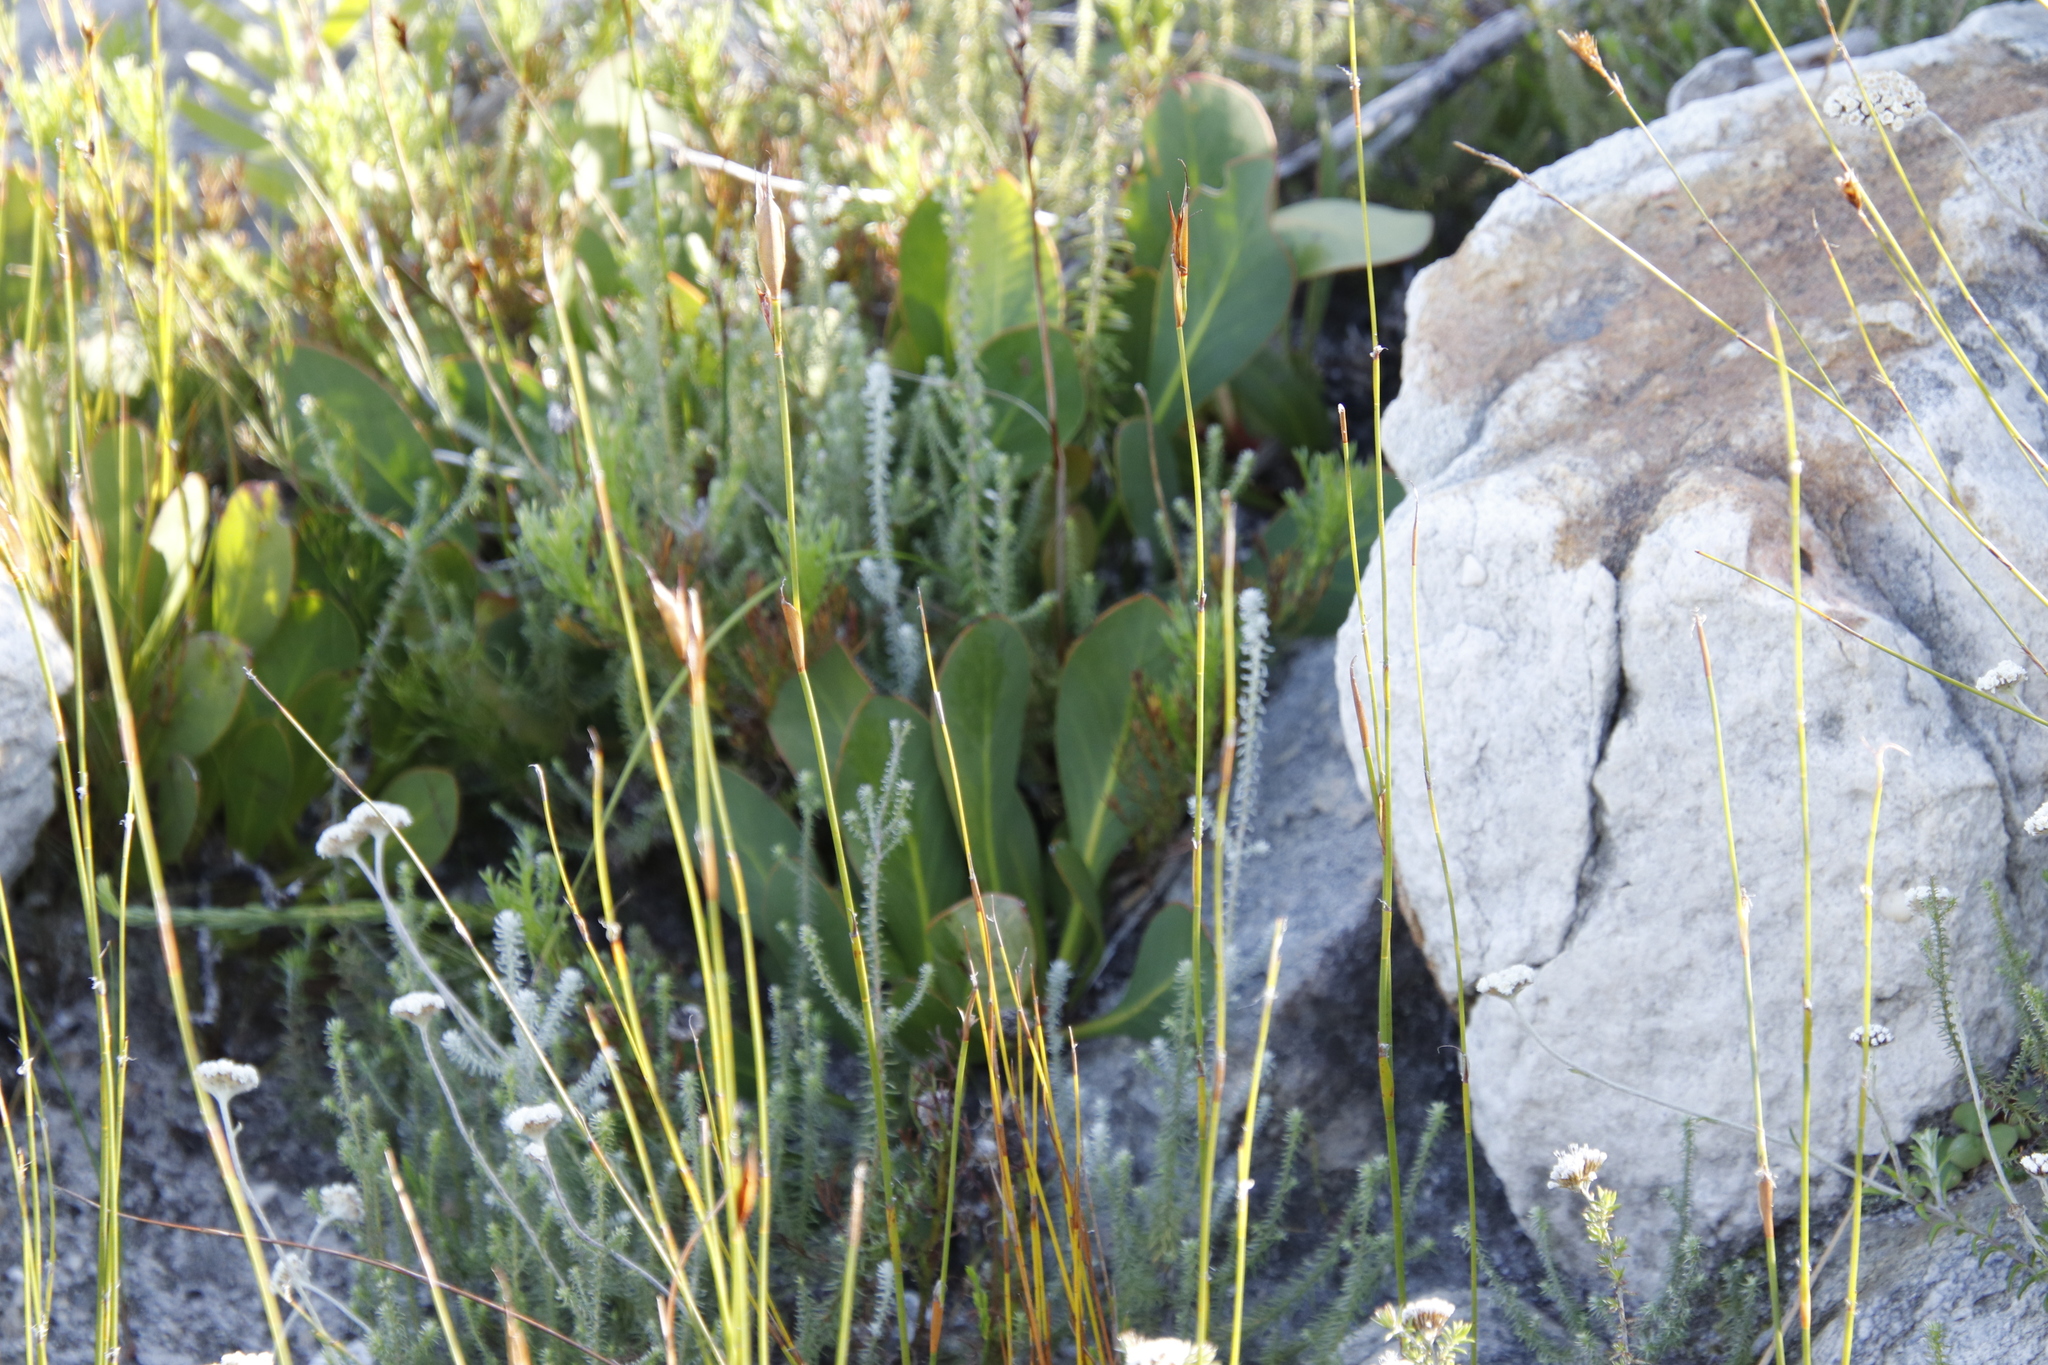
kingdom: Plantae
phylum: Tracheophyta
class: Magnoliopsida
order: Proteales
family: Proteaceae
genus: Protea
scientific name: Protea acaulos
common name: Common ground sugarbush
